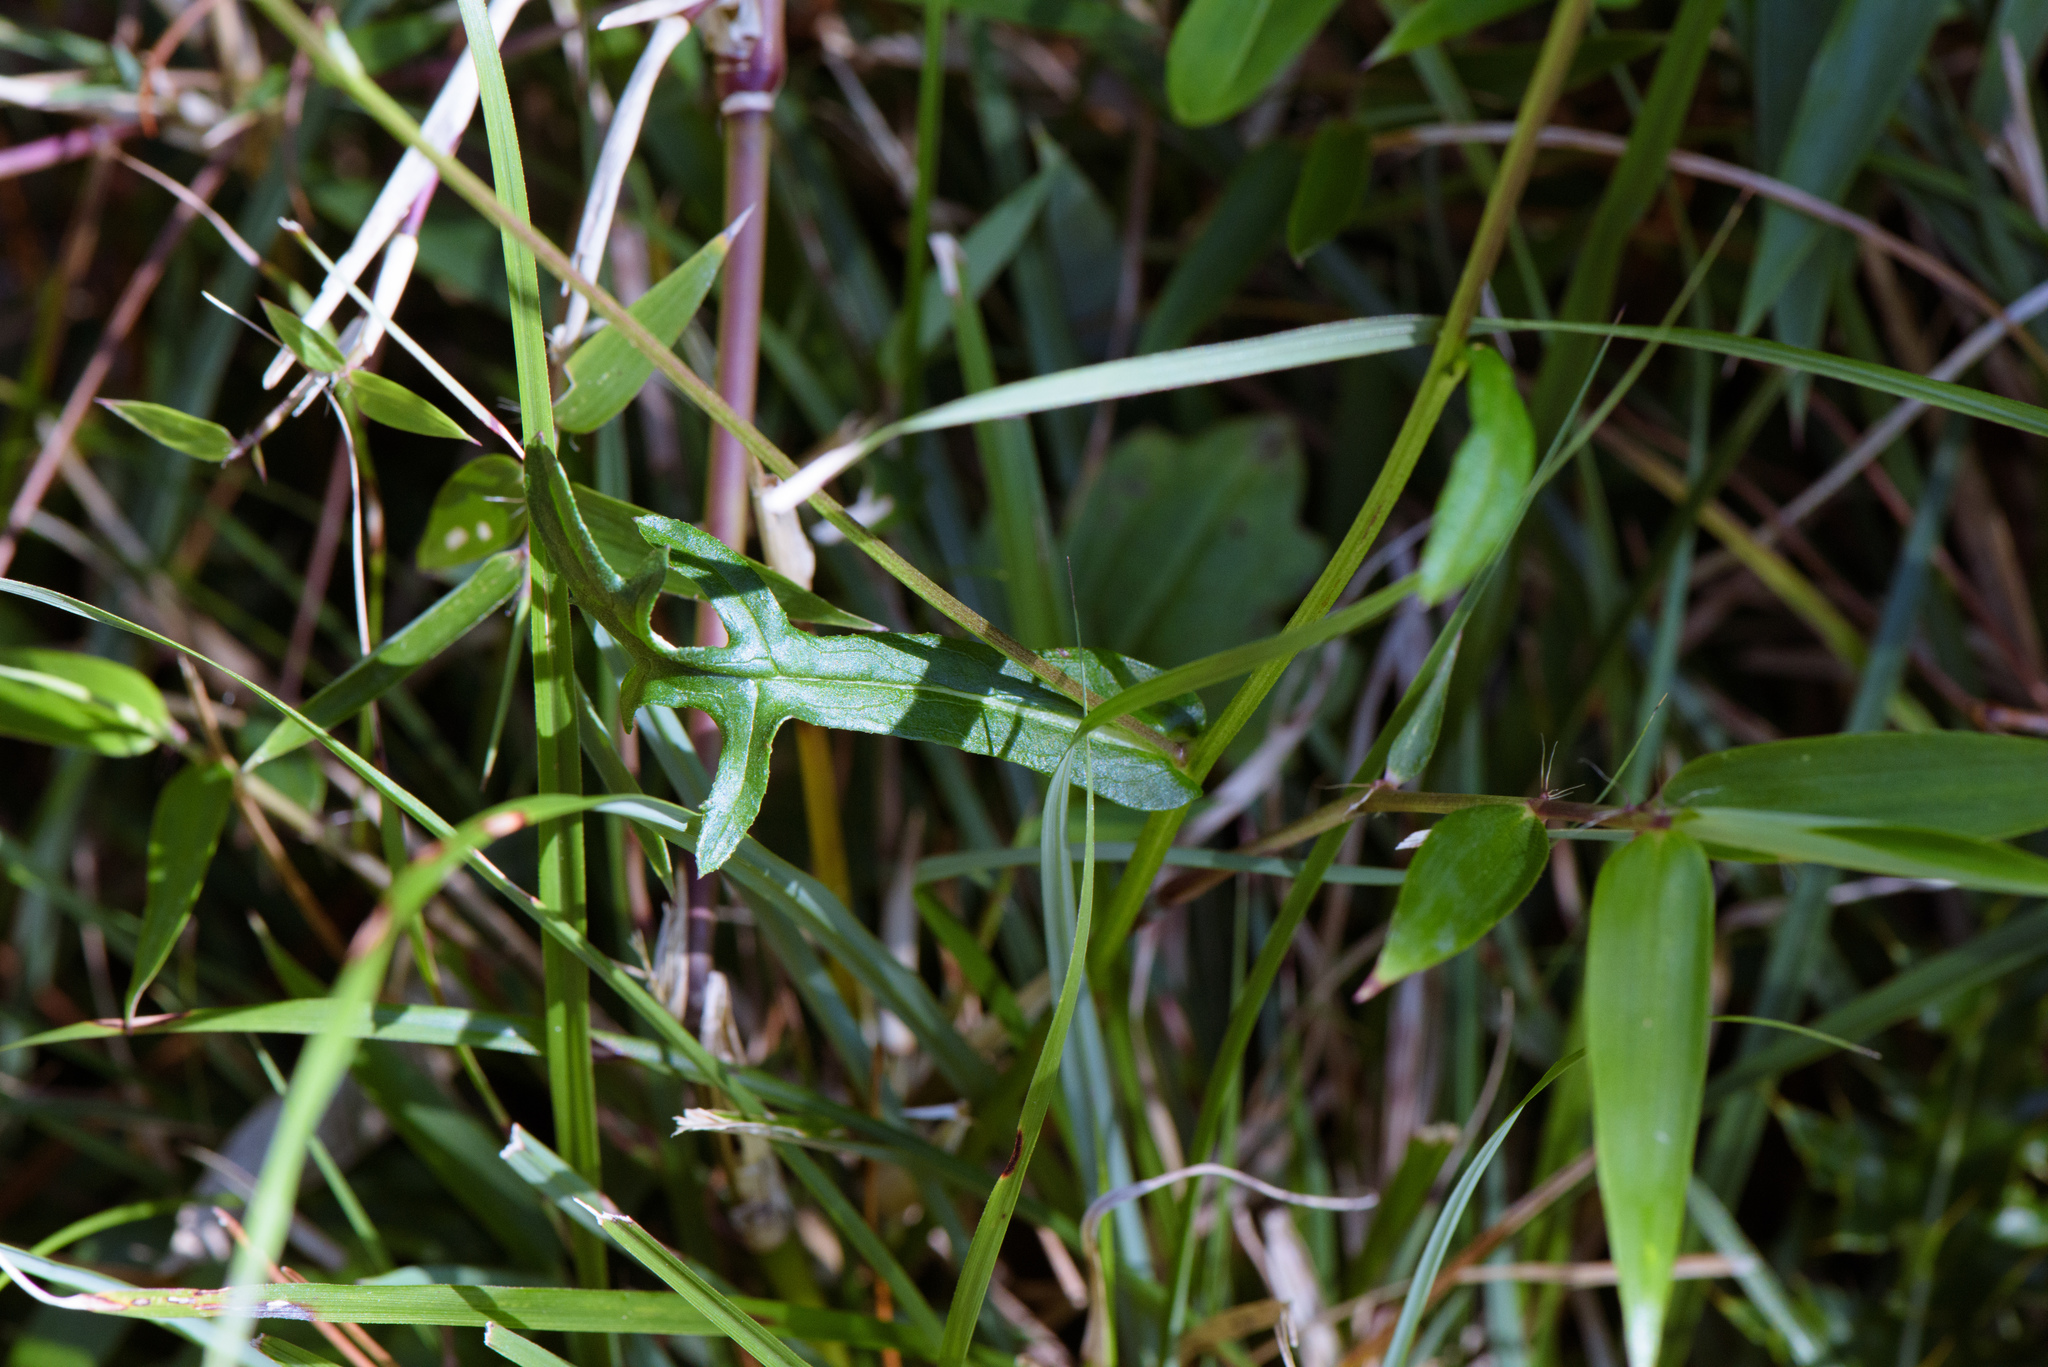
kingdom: Plantae
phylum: Tracheophyta
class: Magnoliopsida
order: Asterales
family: Asteraceae
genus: Myriactis
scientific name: Myriactis humilis
